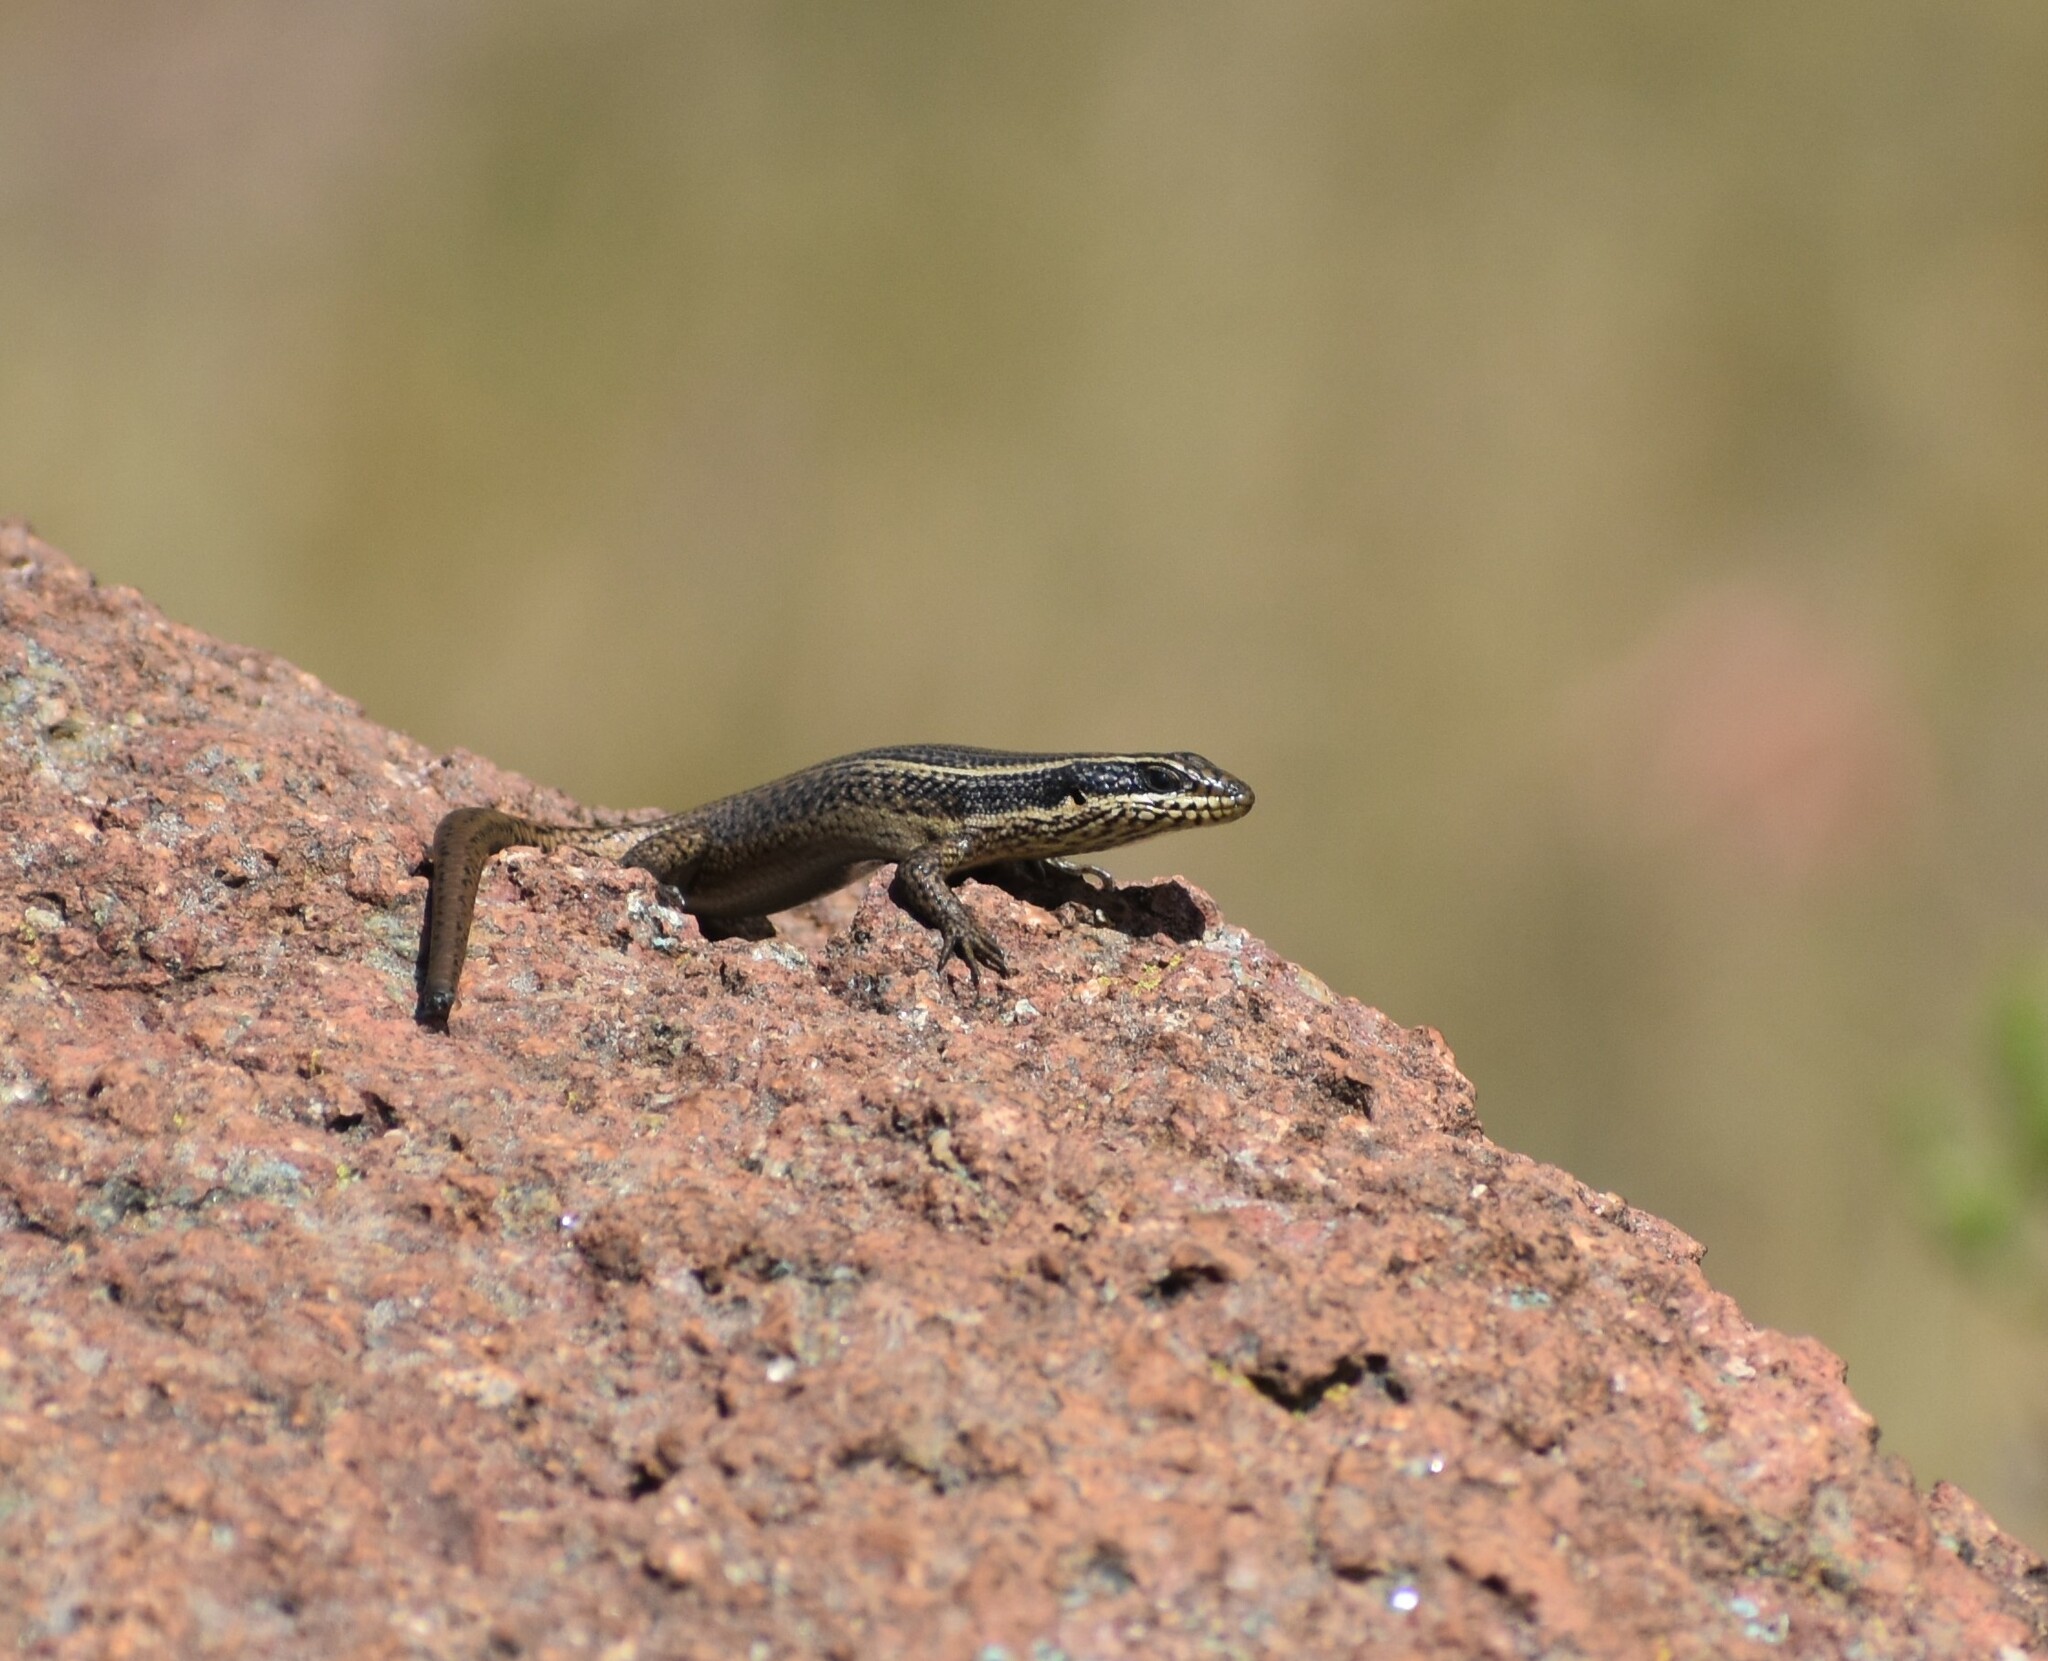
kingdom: Animalia
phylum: Chordata
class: Squamata
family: Scincidae
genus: Trachylepis
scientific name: Trachylepis punctatissima
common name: Montane speckled skink
